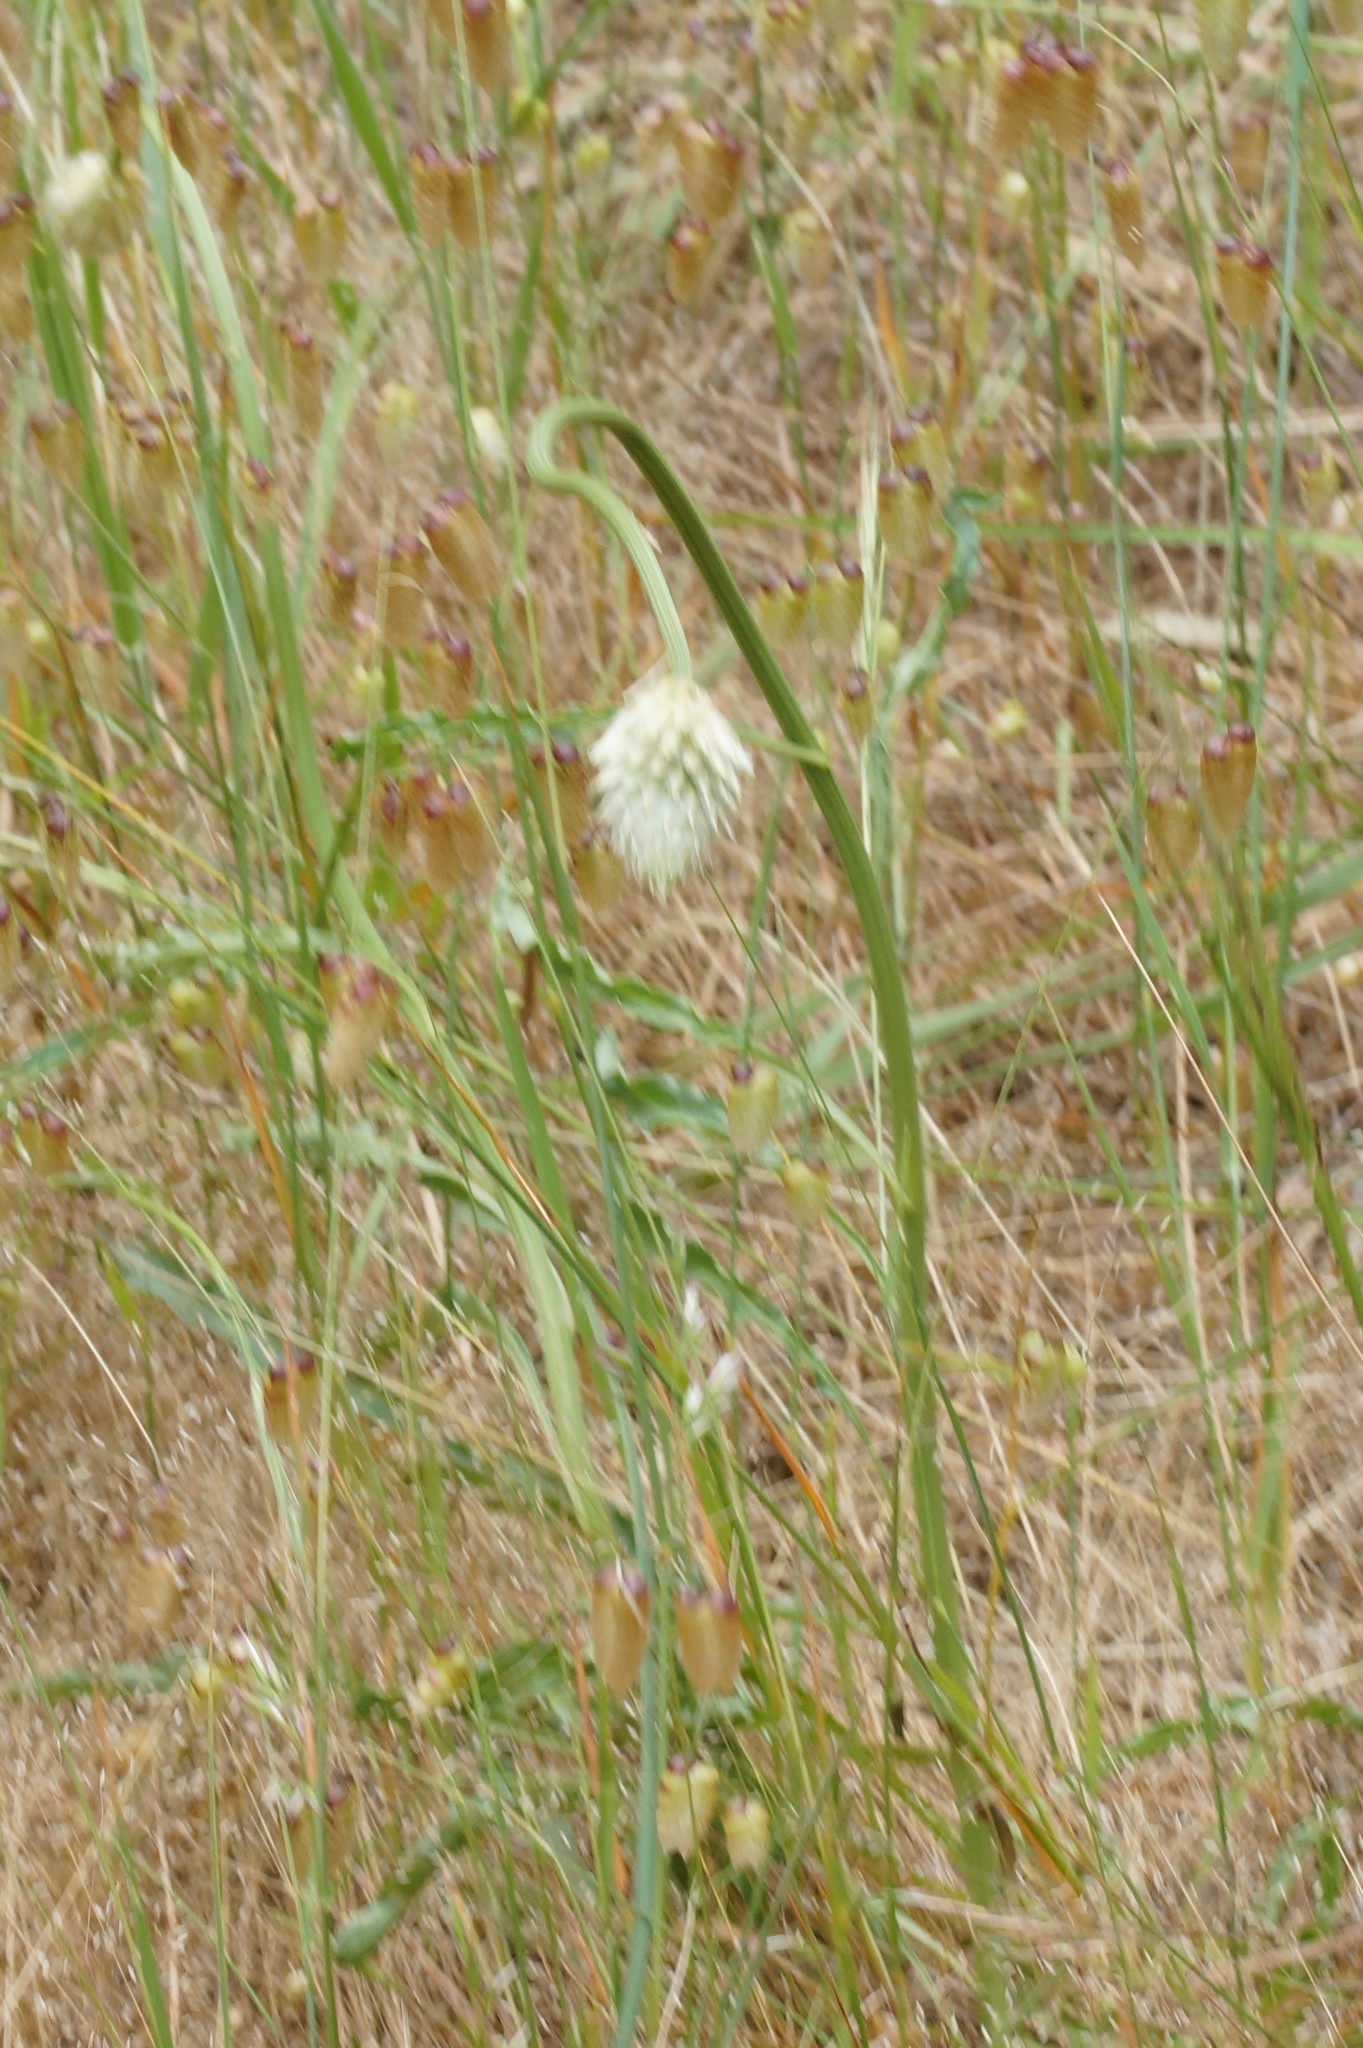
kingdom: Plantae
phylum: Tracheophyta
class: Magnoliopsida
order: Caryophyllales
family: Amaranthaceae
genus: Ptilotus
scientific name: Ptilotus macrocephalus
